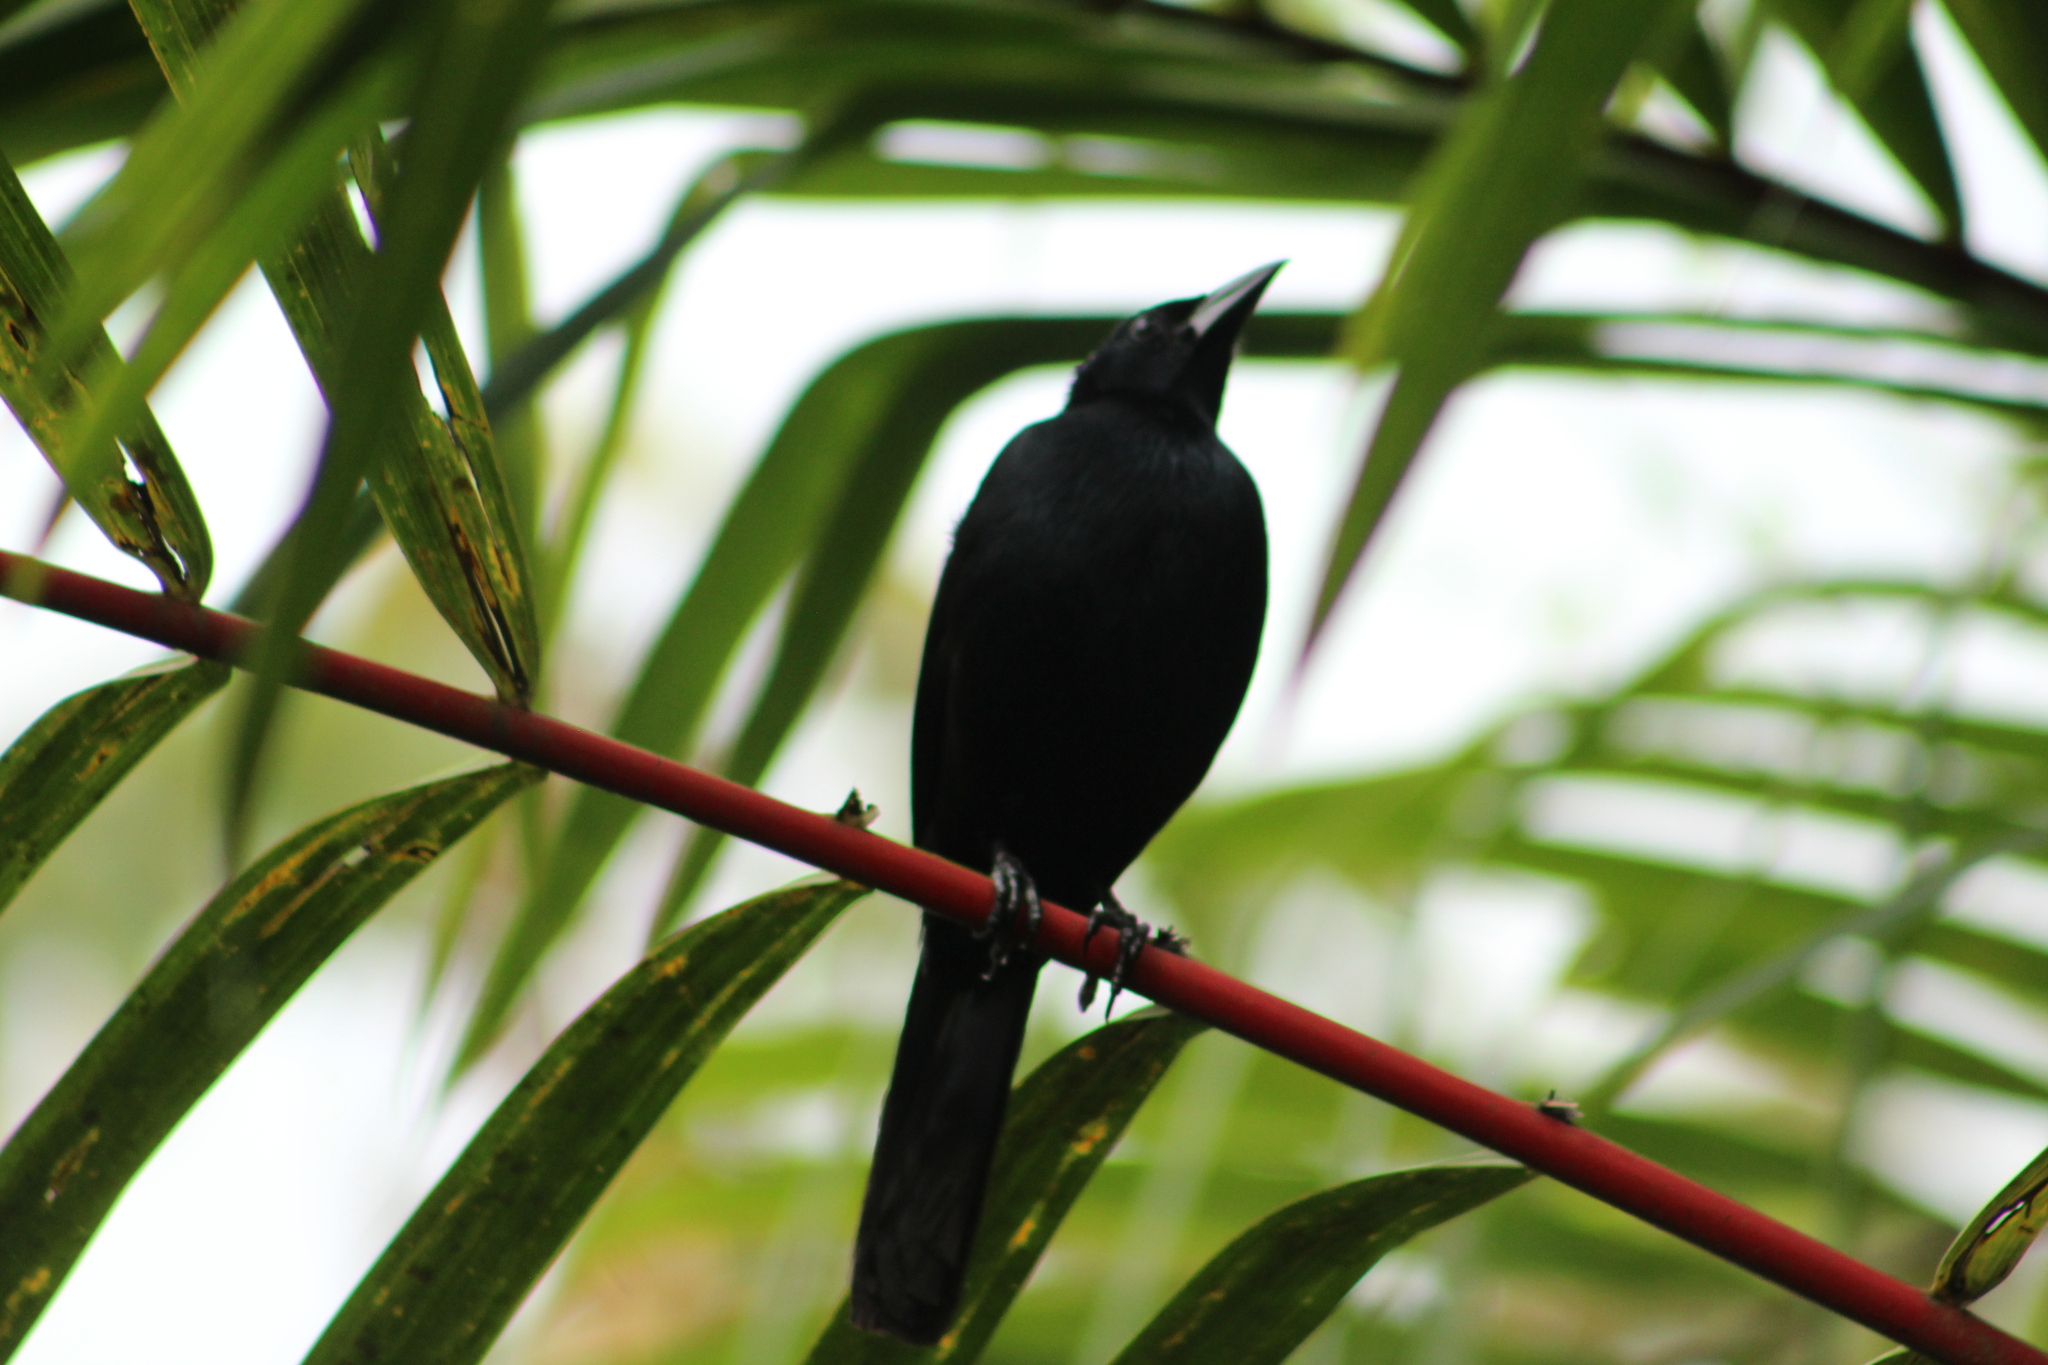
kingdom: Animalia
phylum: Chordata
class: Aves
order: Passeriformes
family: Icteridae
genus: Dives
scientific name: Dives dives
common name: Melodious blackbird
